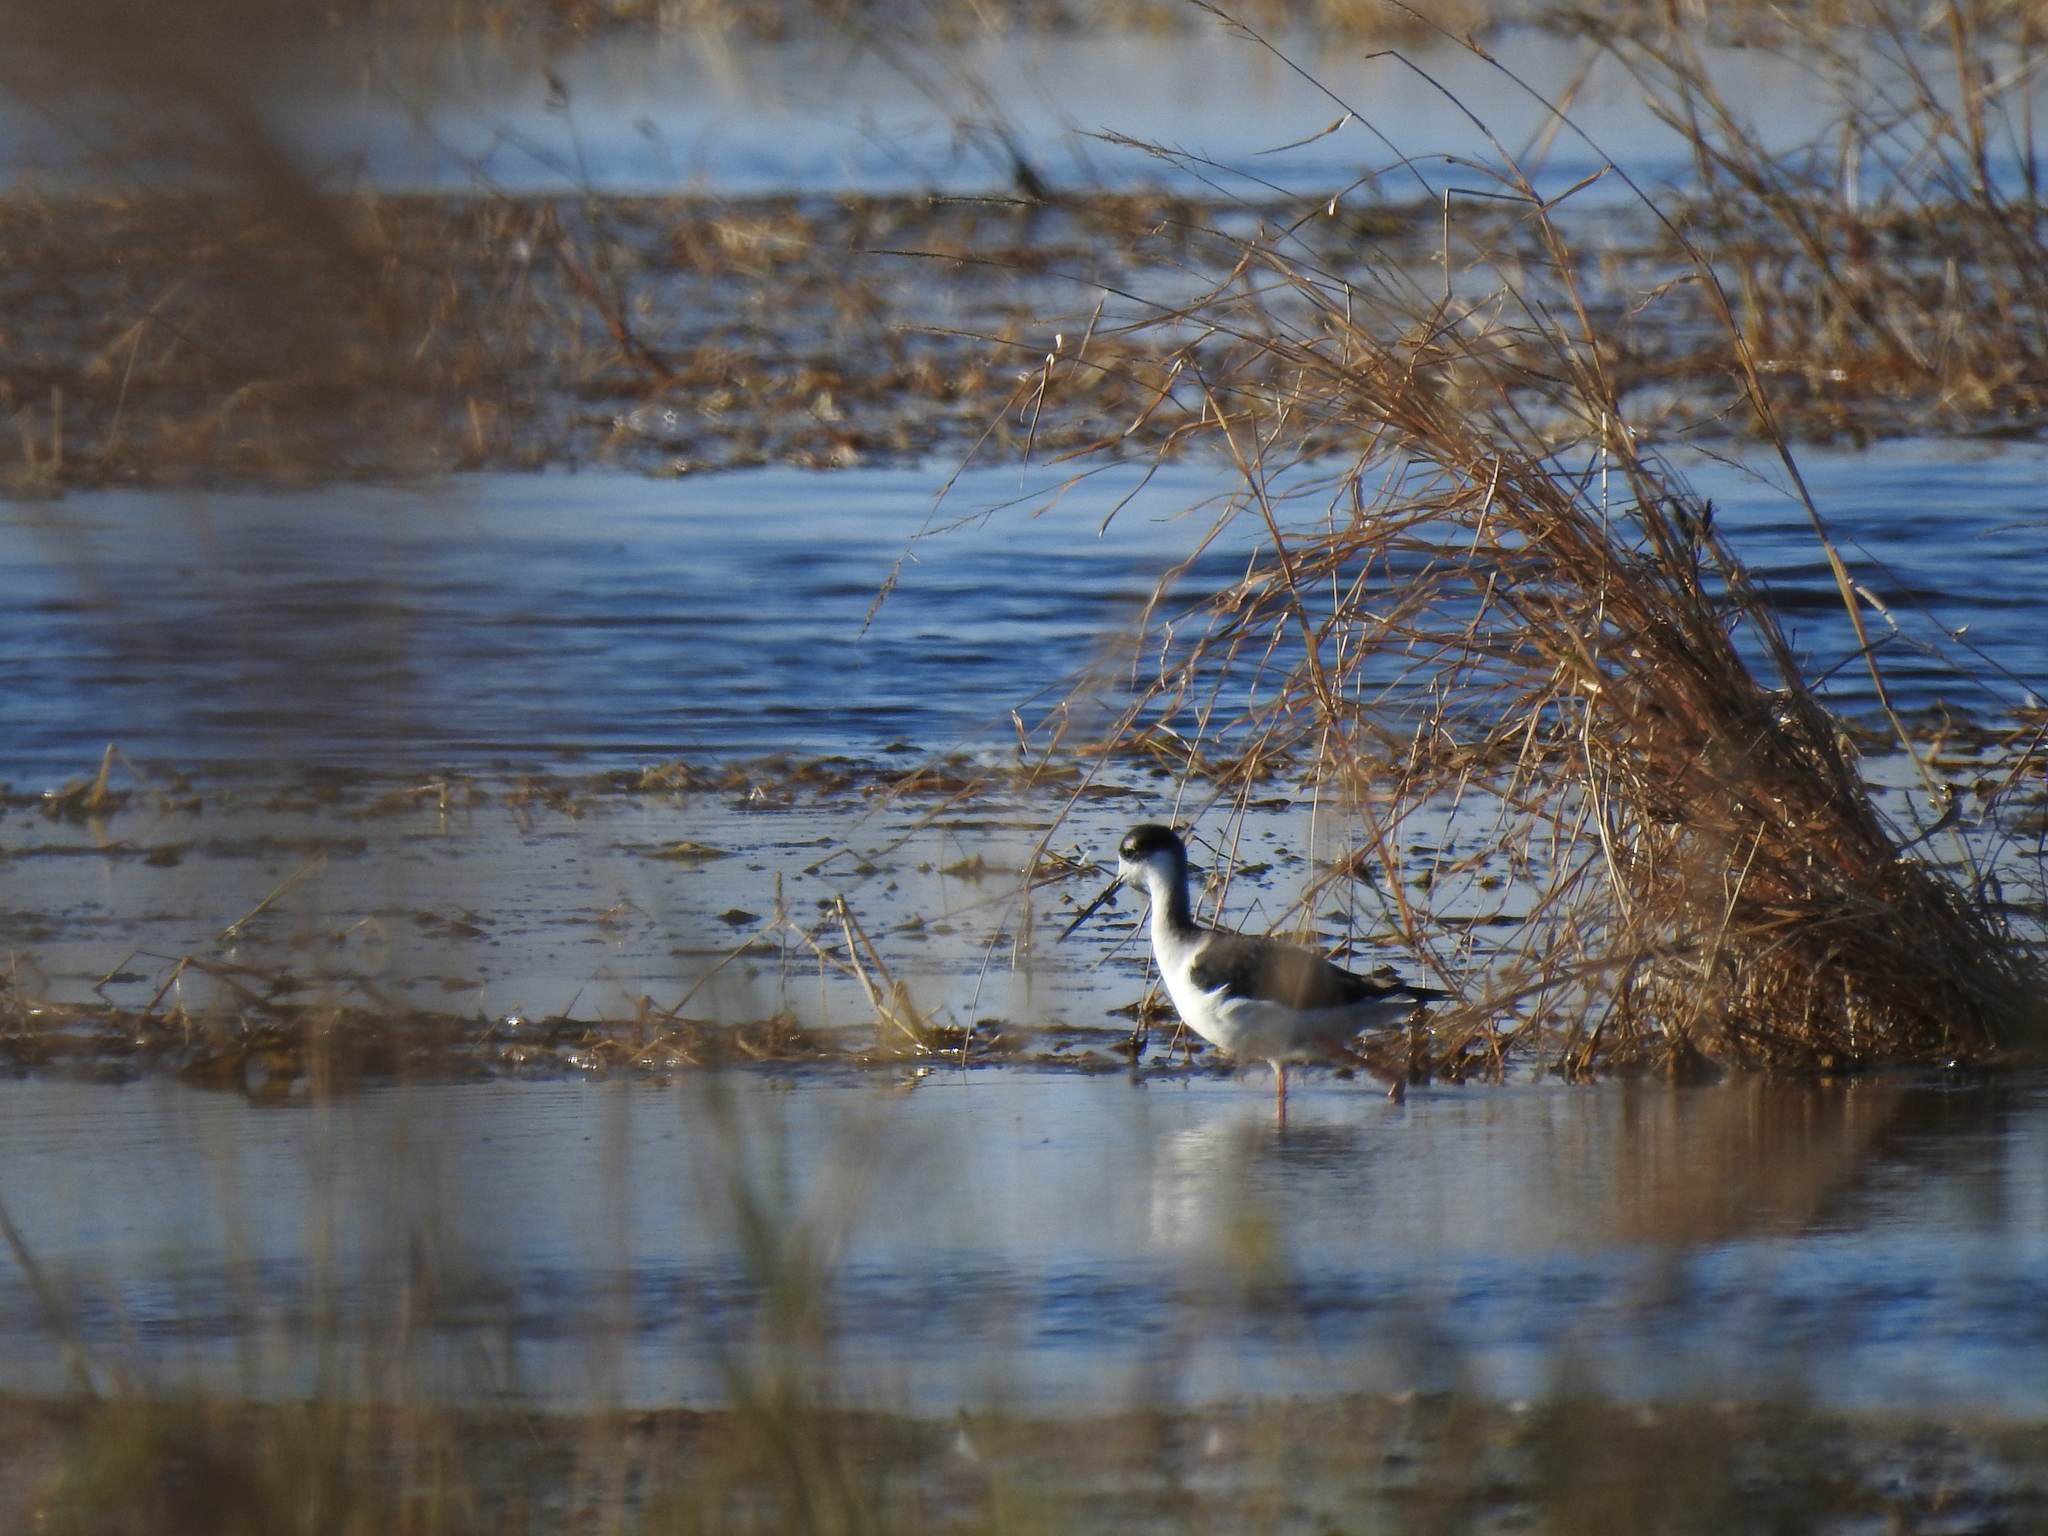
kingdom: Animalia
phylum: Chordata
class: Aves
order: Charadriiformes
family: Recurvirostridae
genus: Himantopus
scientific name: Himantopus mexicanus
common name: Black-necked stilt
